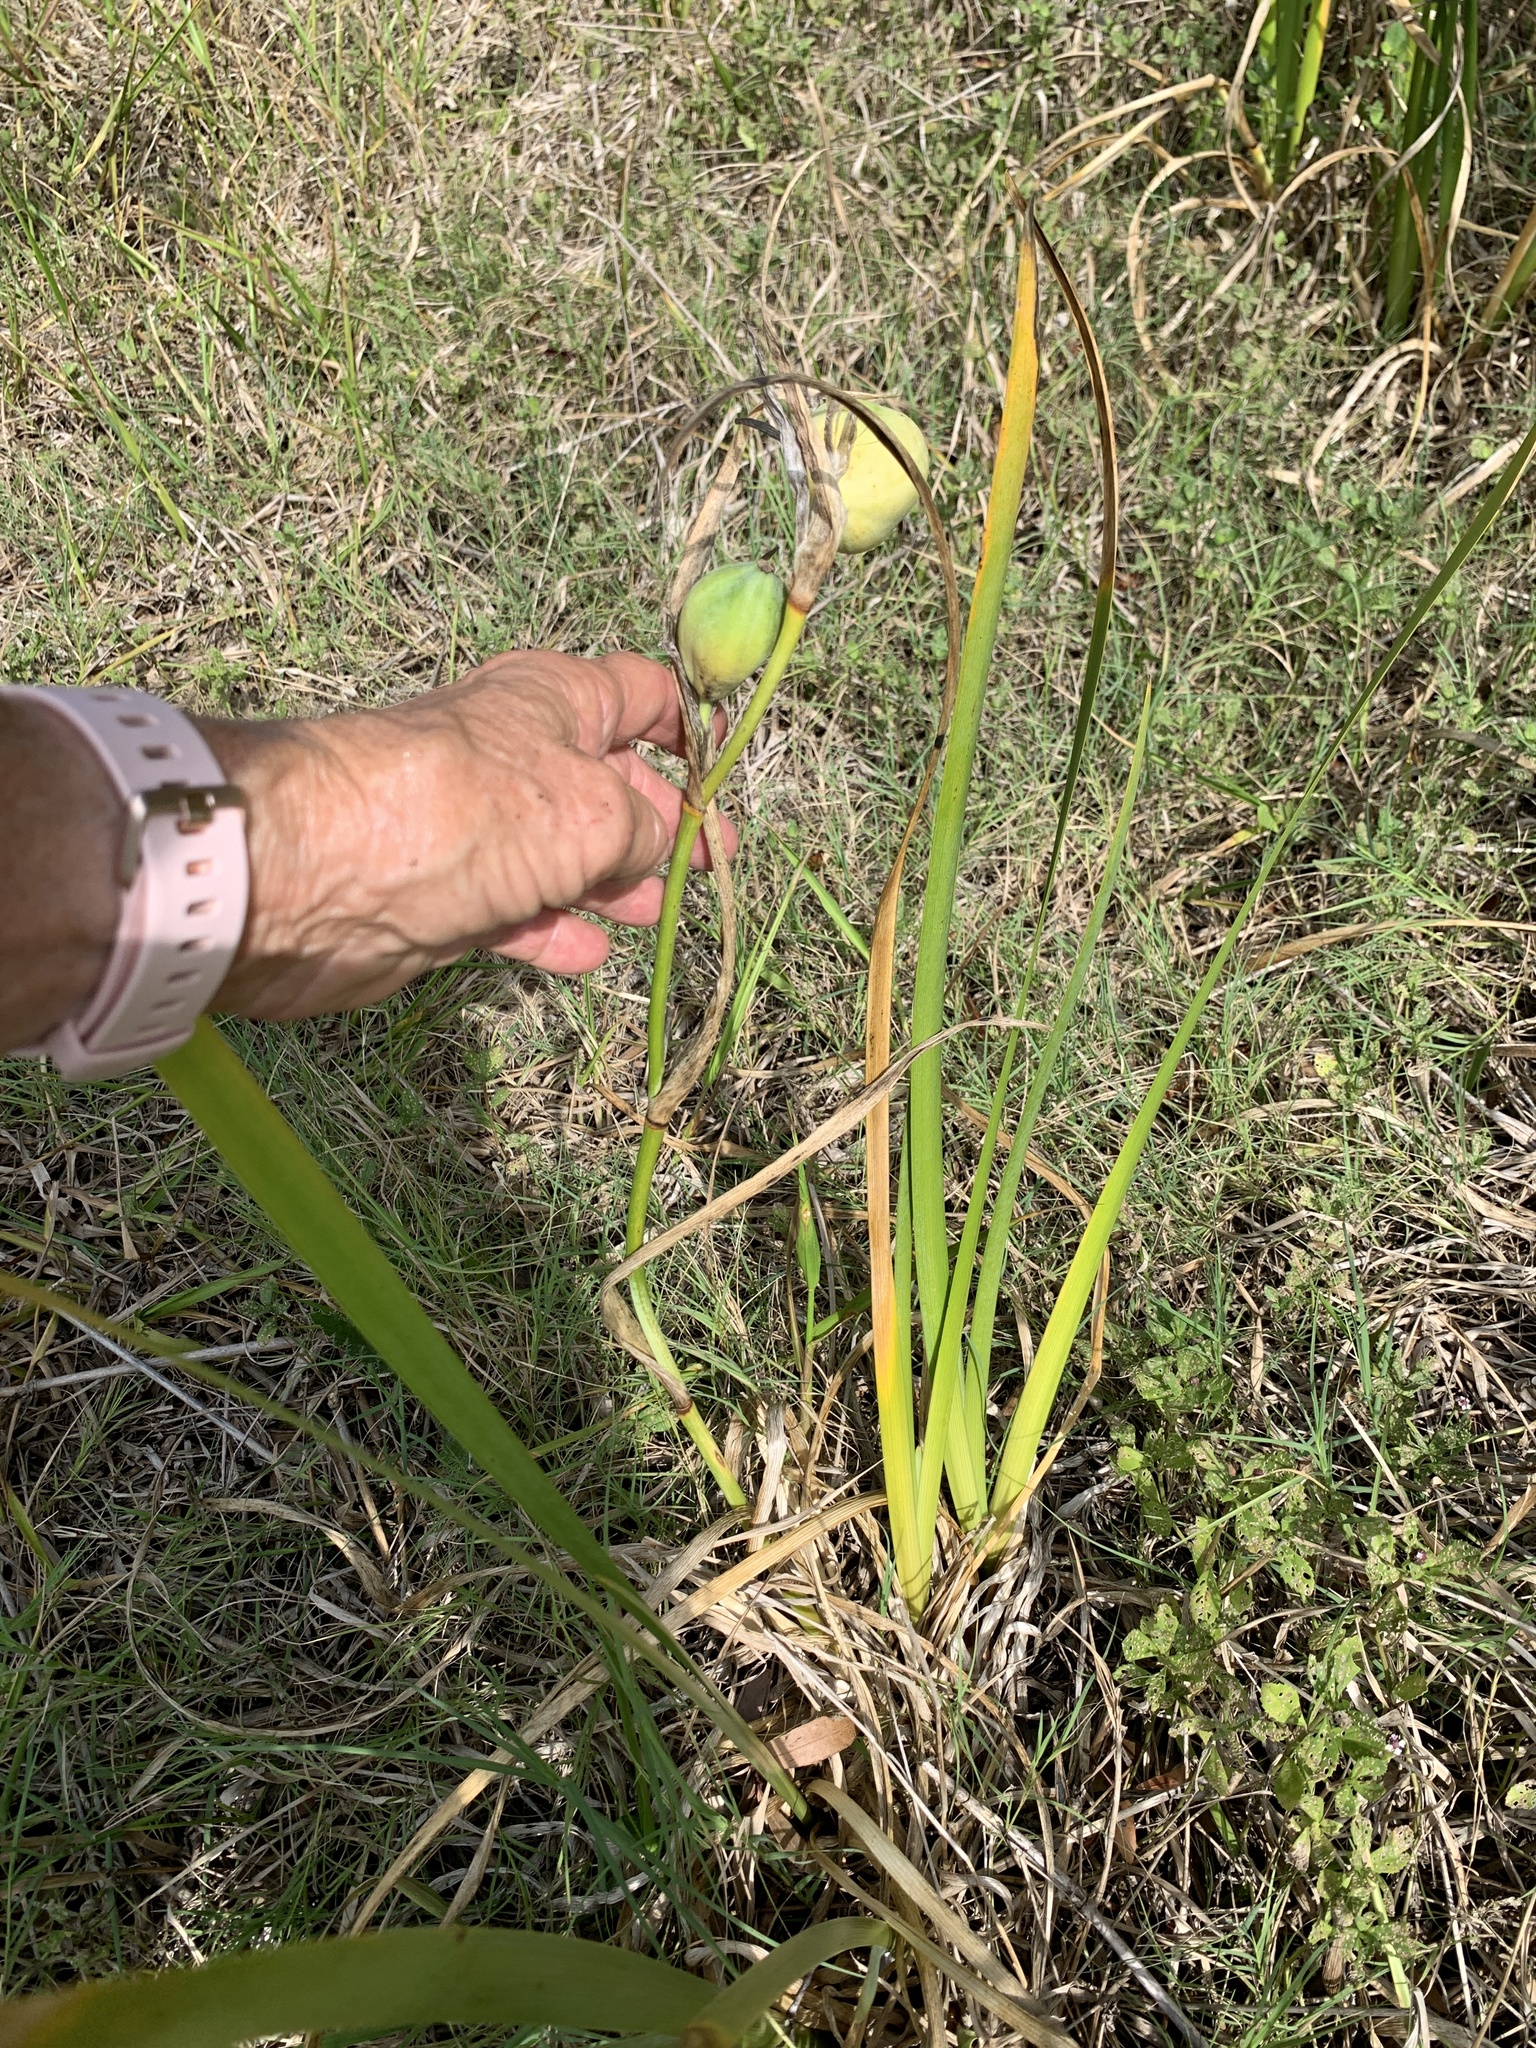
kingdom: Plantae
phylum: Tracheophyta
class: Liliopsida
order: Asparagales
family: Iridaceae
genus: Iris
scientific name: Iris savannarum
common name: Prairie iris
